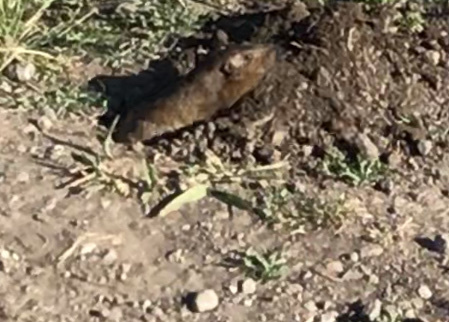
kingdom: Animalia
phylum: Chordata
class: Mammalia
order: Rodentia
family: Geomyidae
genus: Thomomys
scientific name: Thomomys bottae
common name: Botta's pocket gopher
